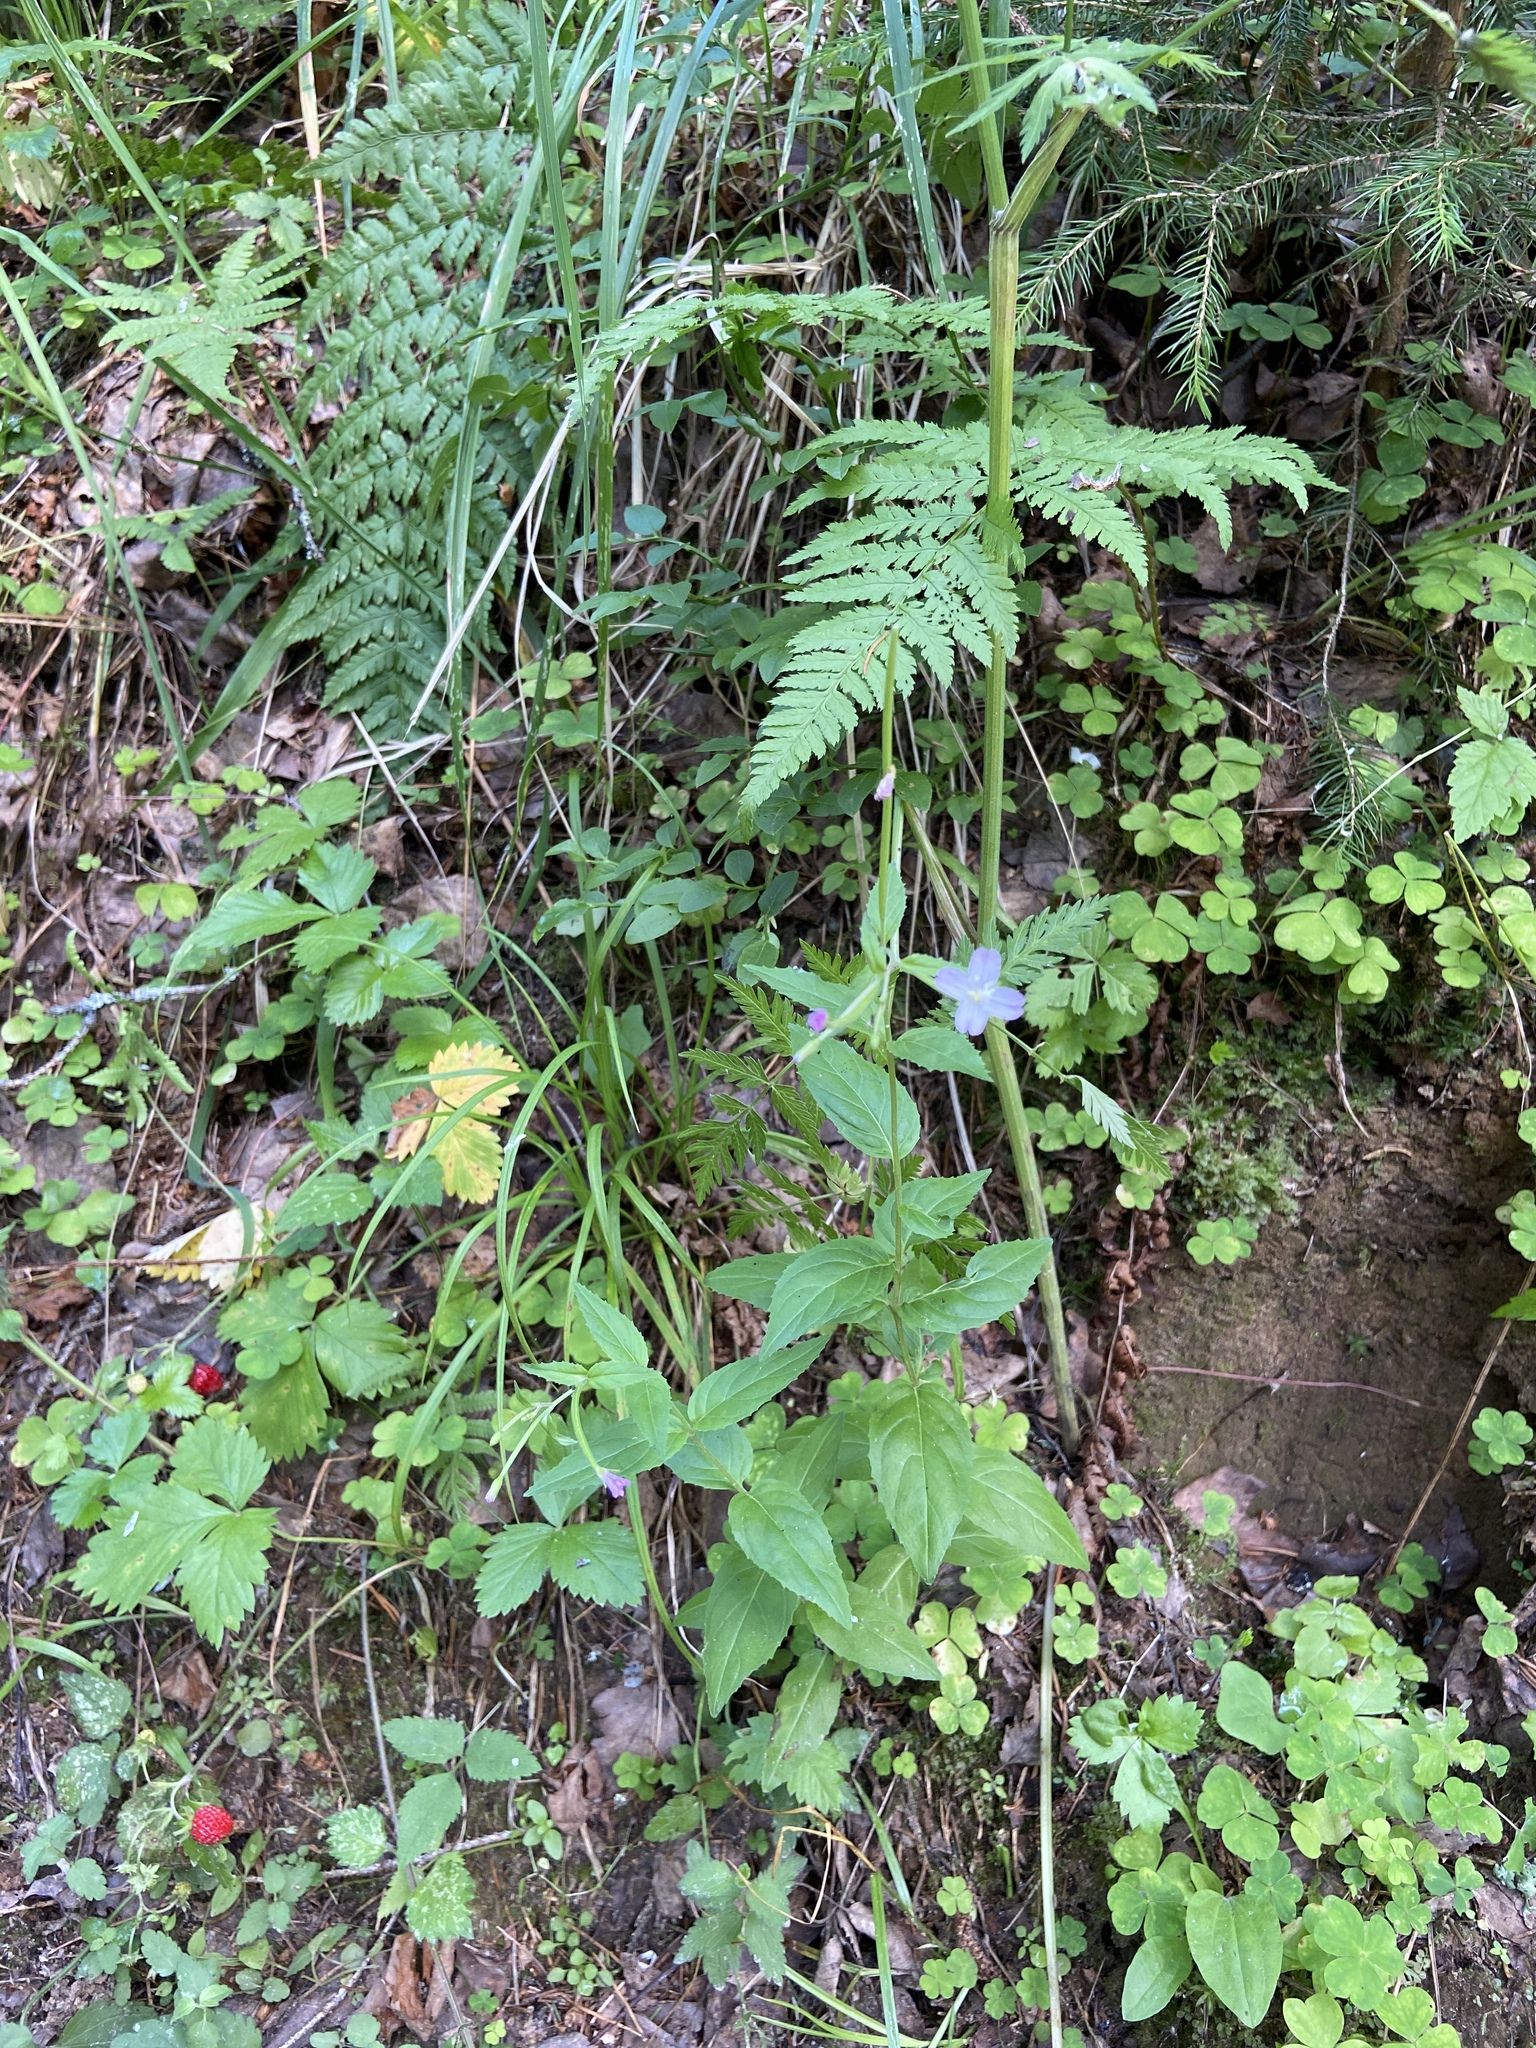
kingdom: Plantae
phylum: Tracheophyta
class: Magnoliopsida
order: Myrtales
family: Onagraceae
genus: Epilobium
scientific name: Epilobium montanum
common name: Broad-leaved willowherb
